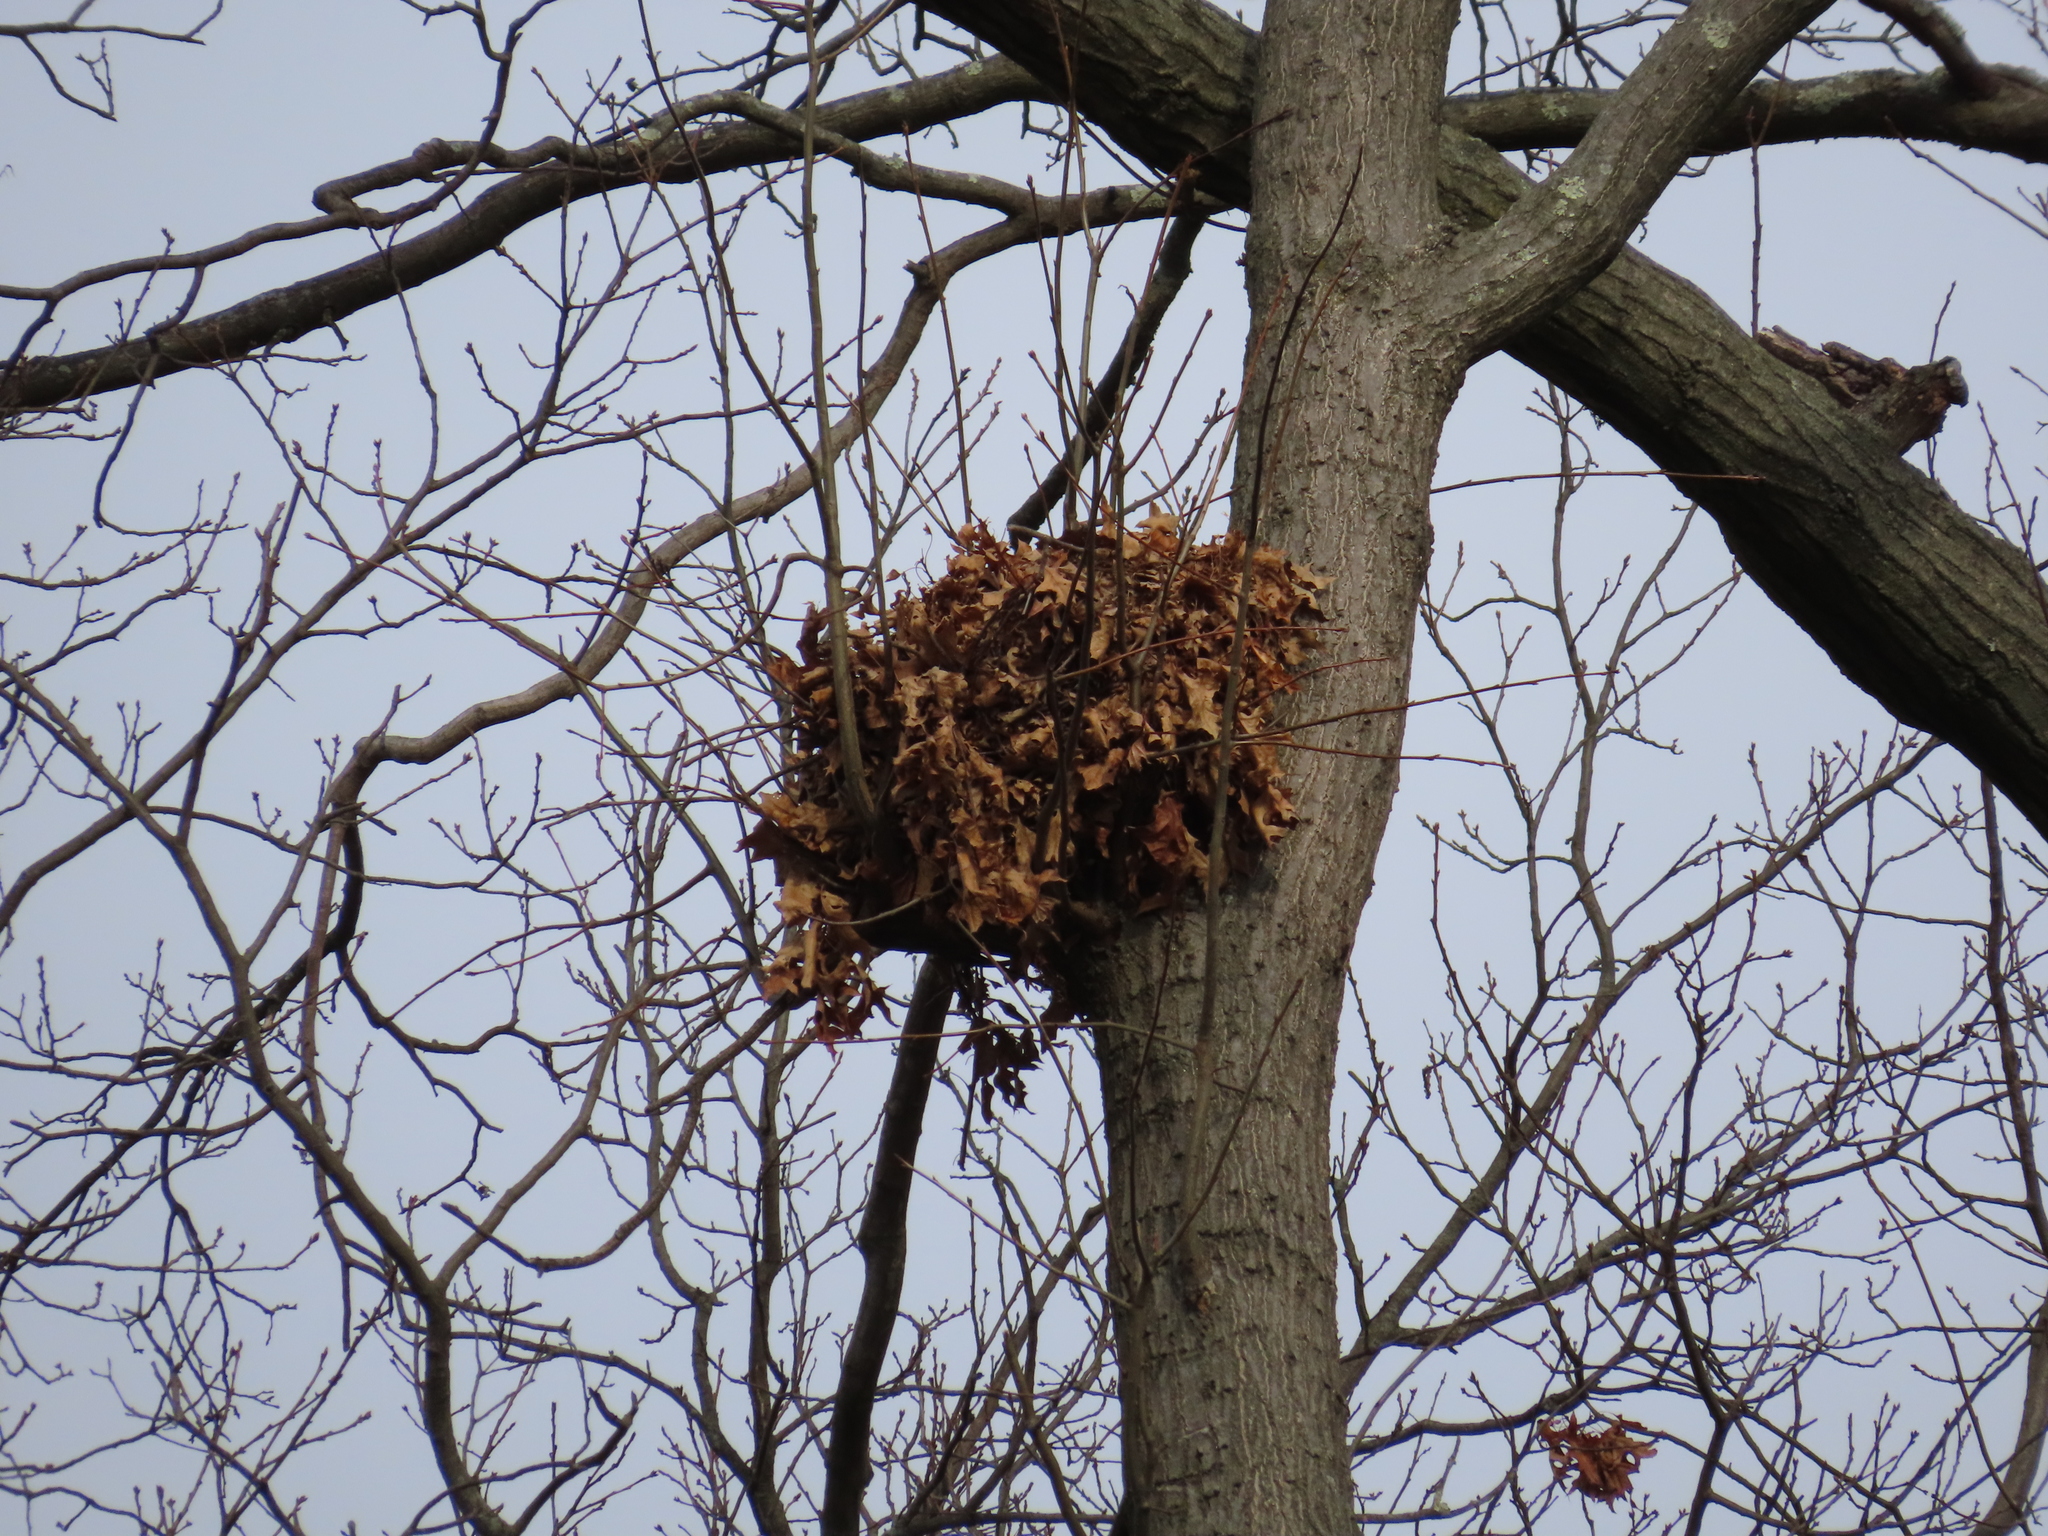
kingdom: Animalia
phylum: Chordata
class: Mammalia
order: Rodentia
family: Sciuridae
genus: Sciurus
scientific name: Sciurus carolinensis
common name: Eastern gray squirrel
